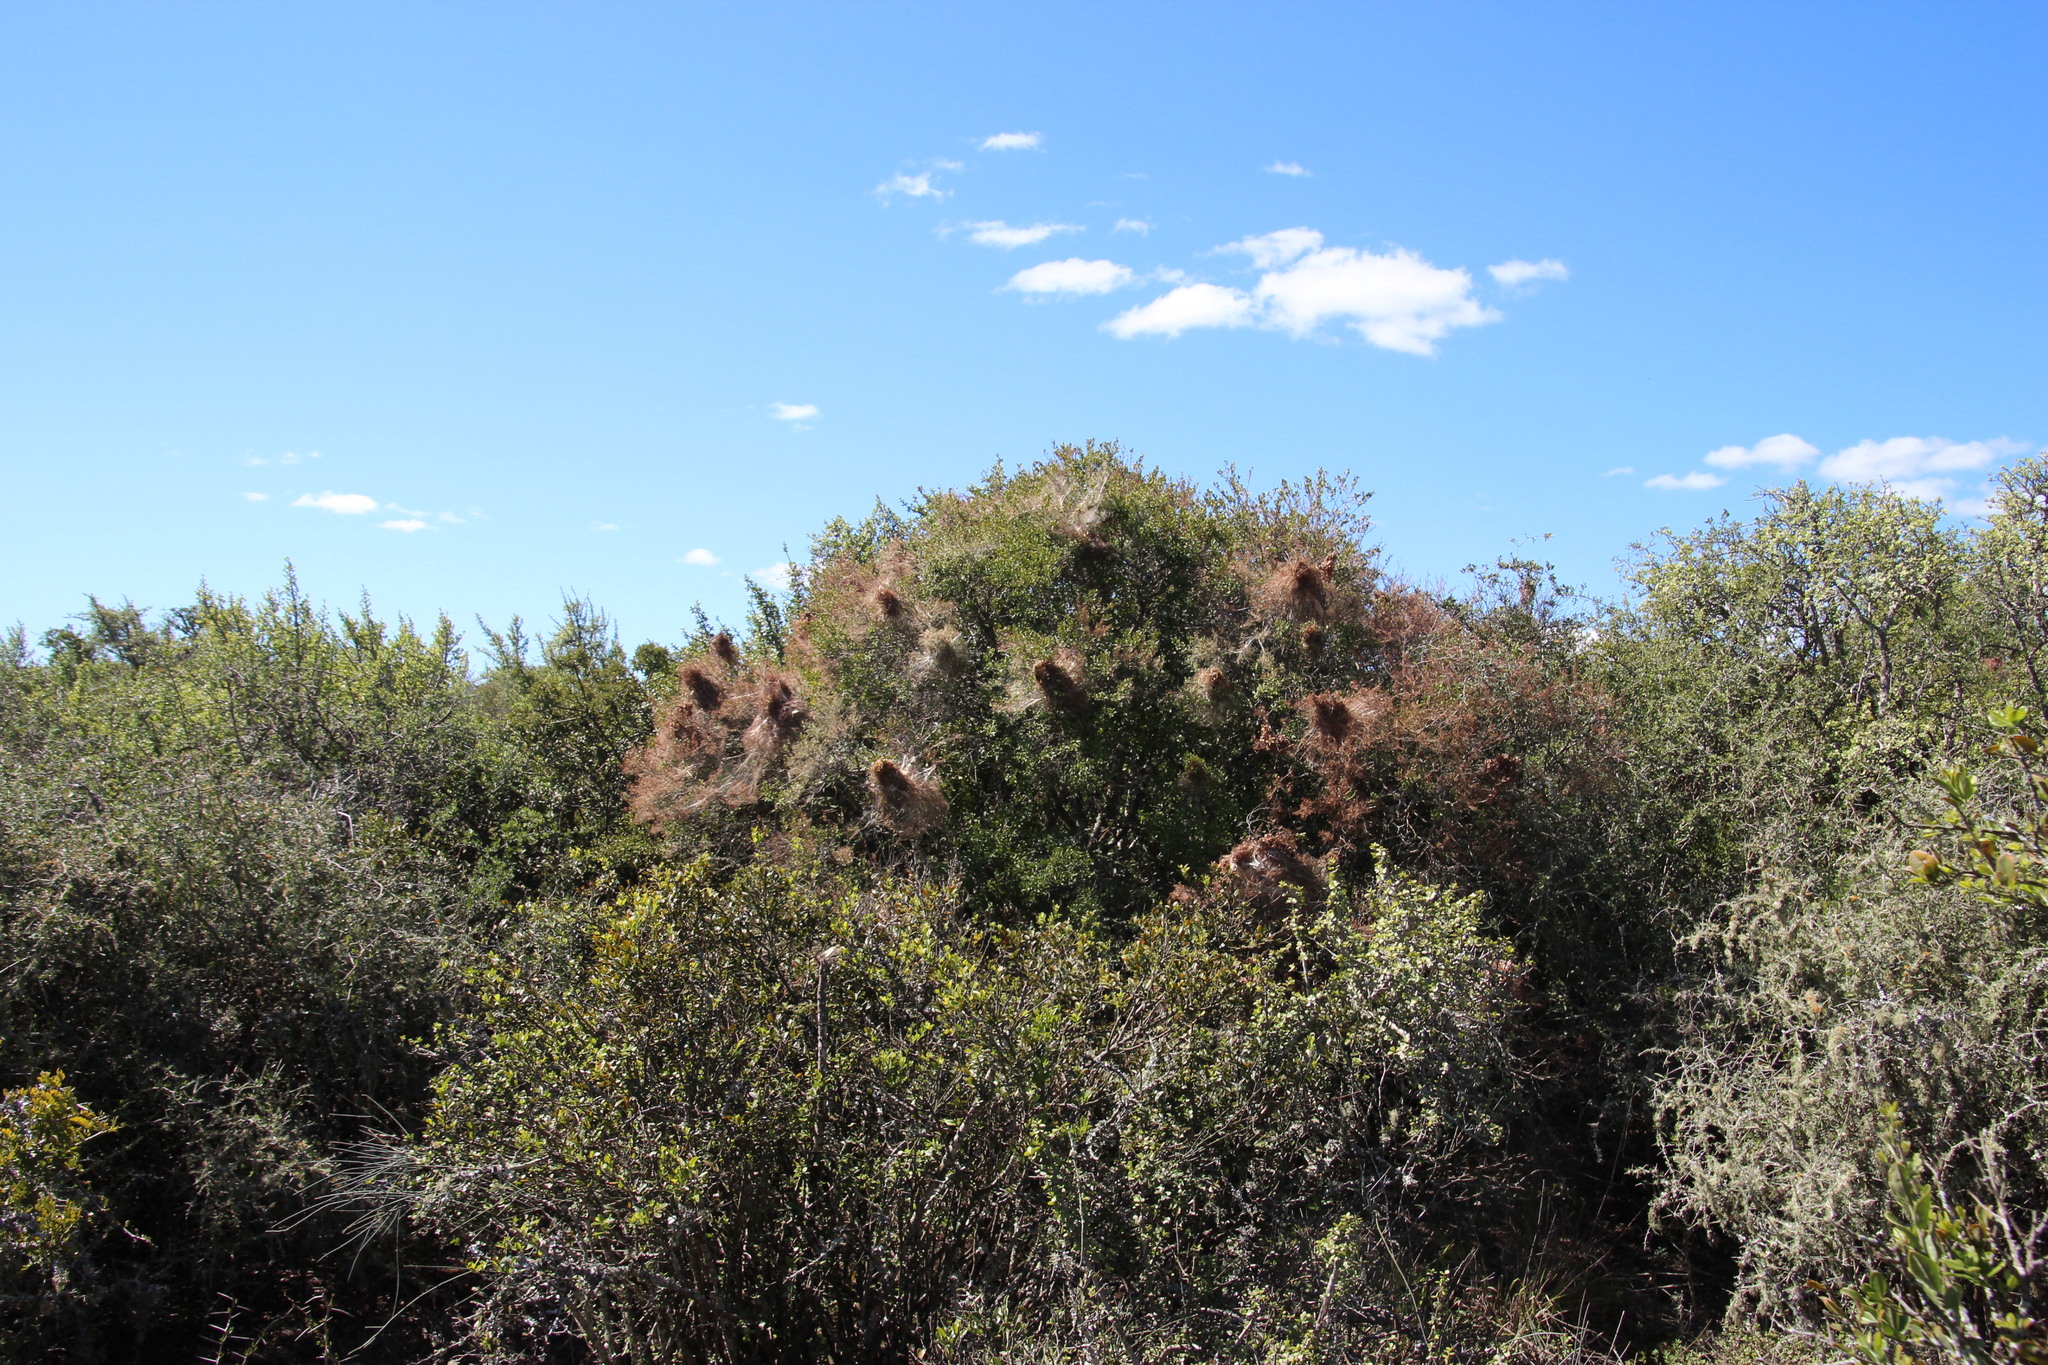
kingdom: Plantae
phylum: Tracheophyta
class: Magnoliopsida
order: Ericales
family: Ebenaceae
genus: Euclea
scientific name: Euclea undulata
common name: Small-leaved guarri
